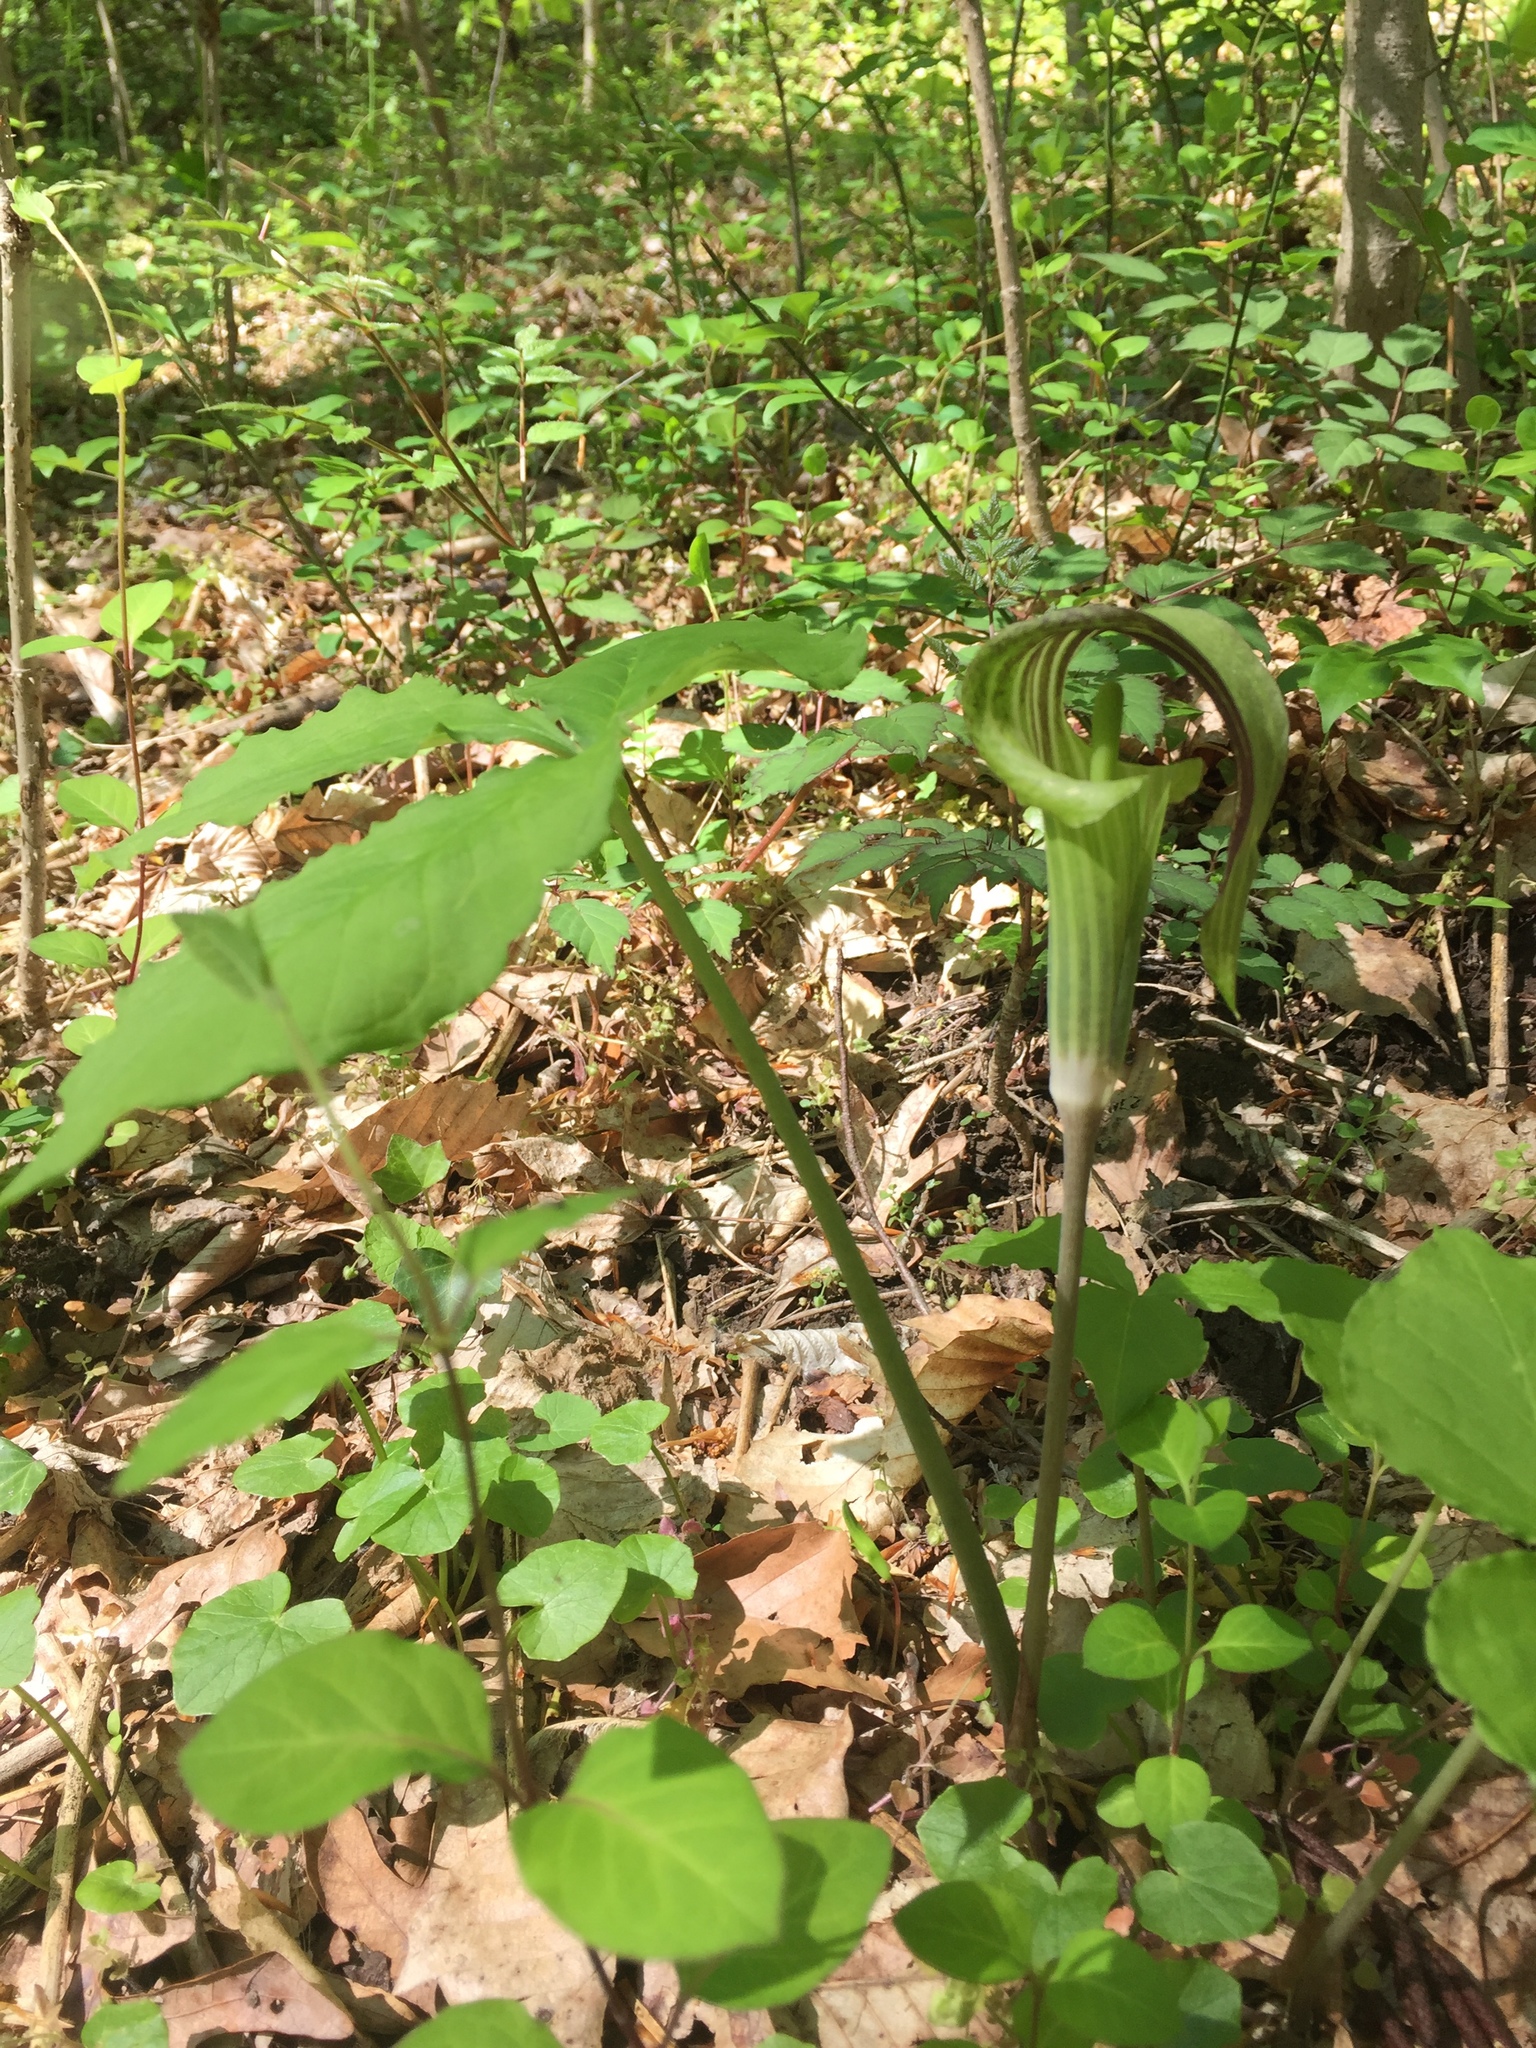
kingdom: Plantae
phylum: Tracheophyta
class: Liliopsida
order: Alismatales
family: Araceae
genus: Arisaema
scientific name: Arisaema triphyllum
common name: Jack-in-the-pulpit
